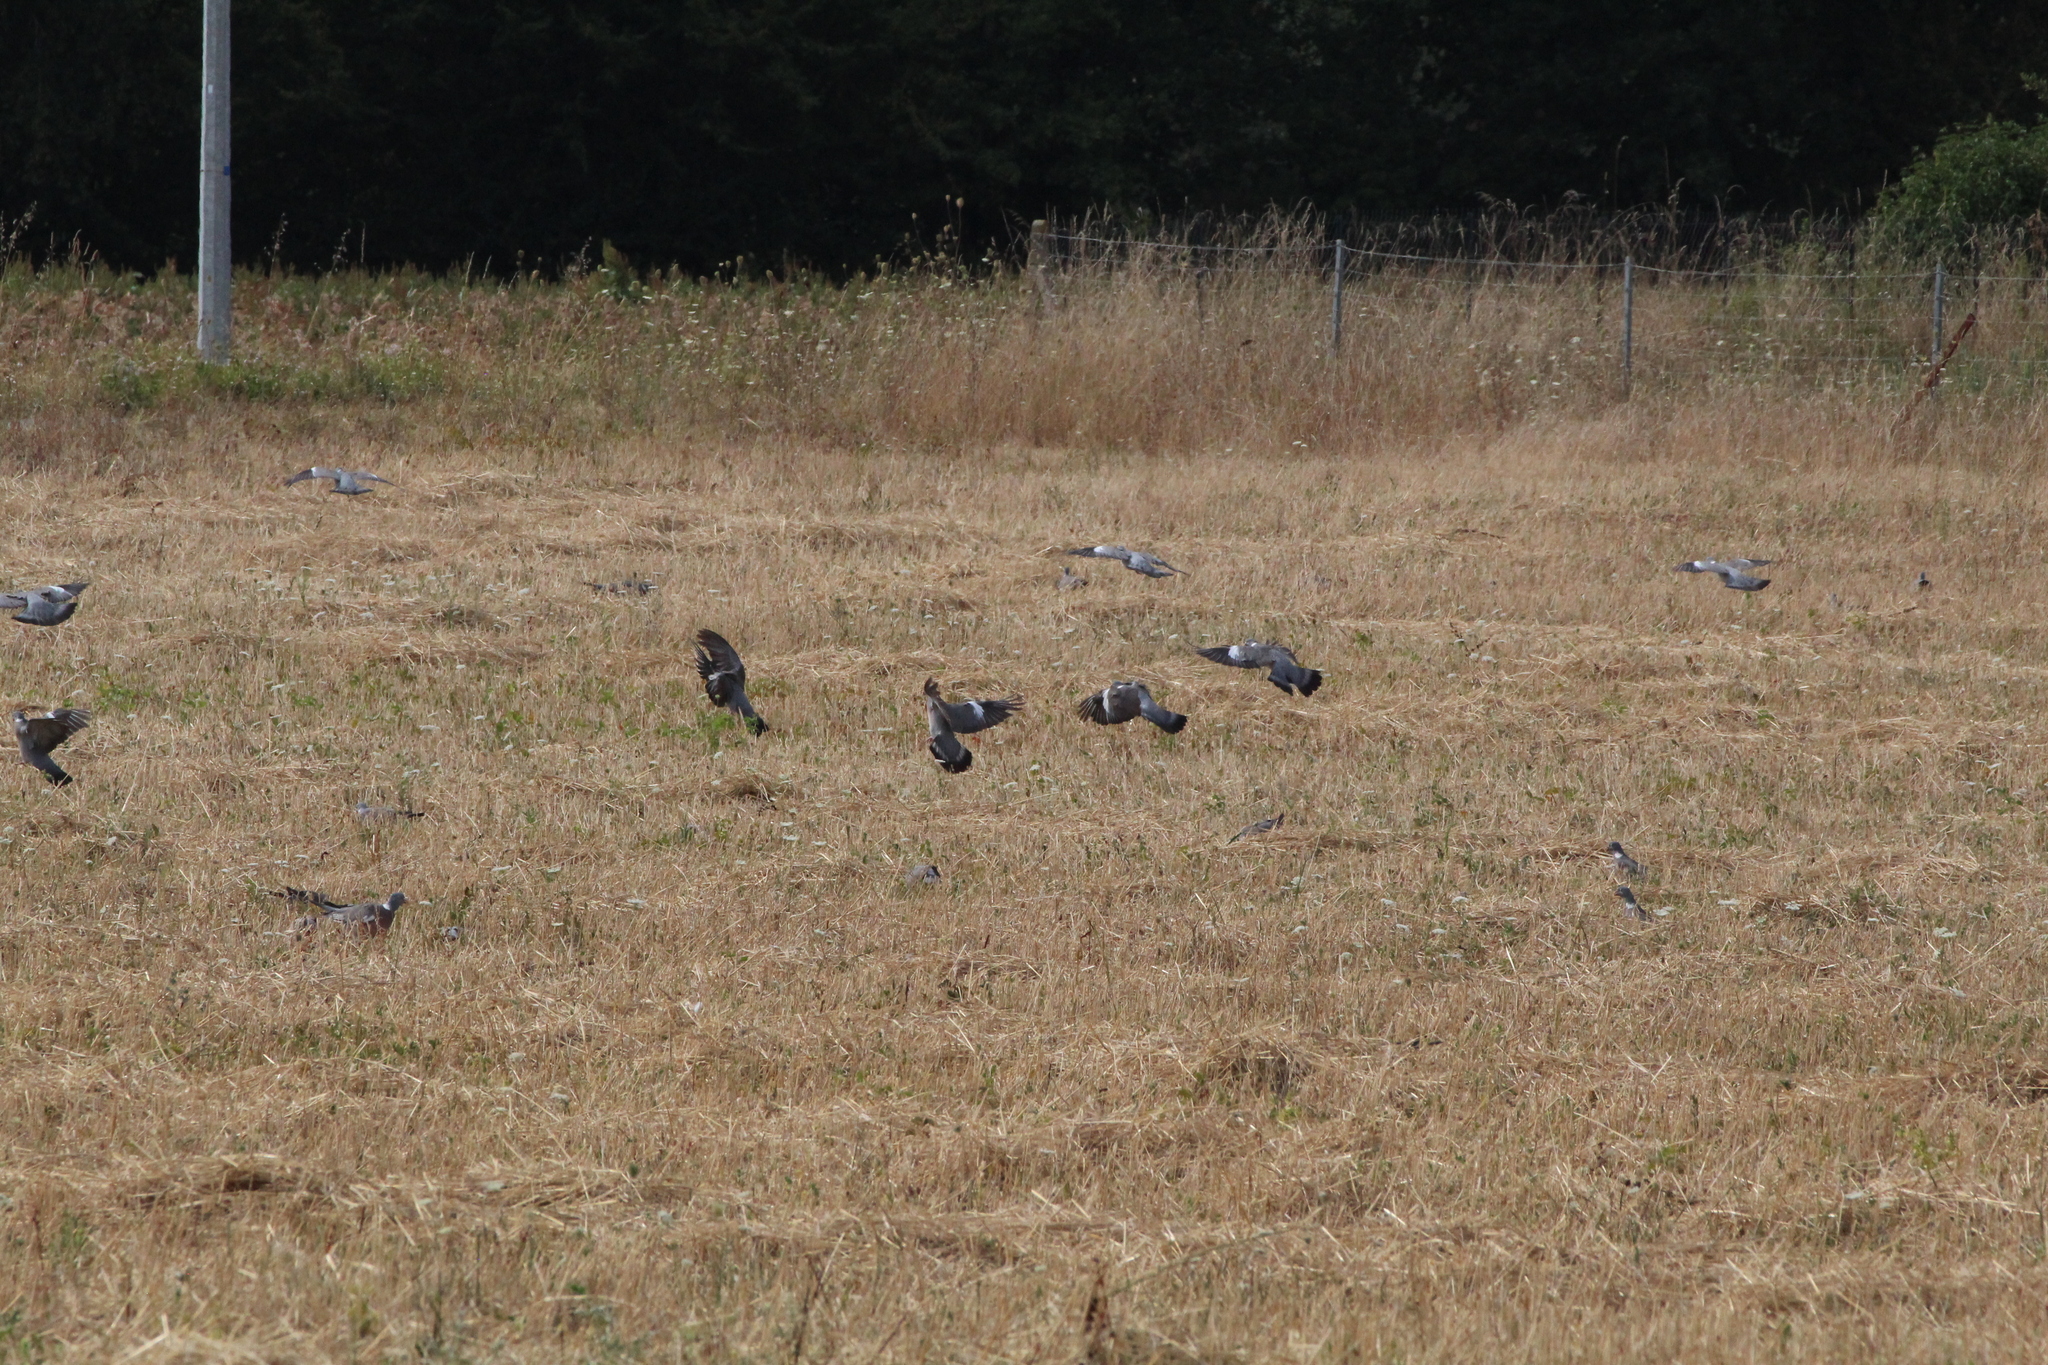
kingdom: Animalia
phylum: Chordata
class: Aves
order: Columbiformes
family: Columbidae
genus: Columba
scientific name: Columba palumbus
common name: Common wood pigeon
